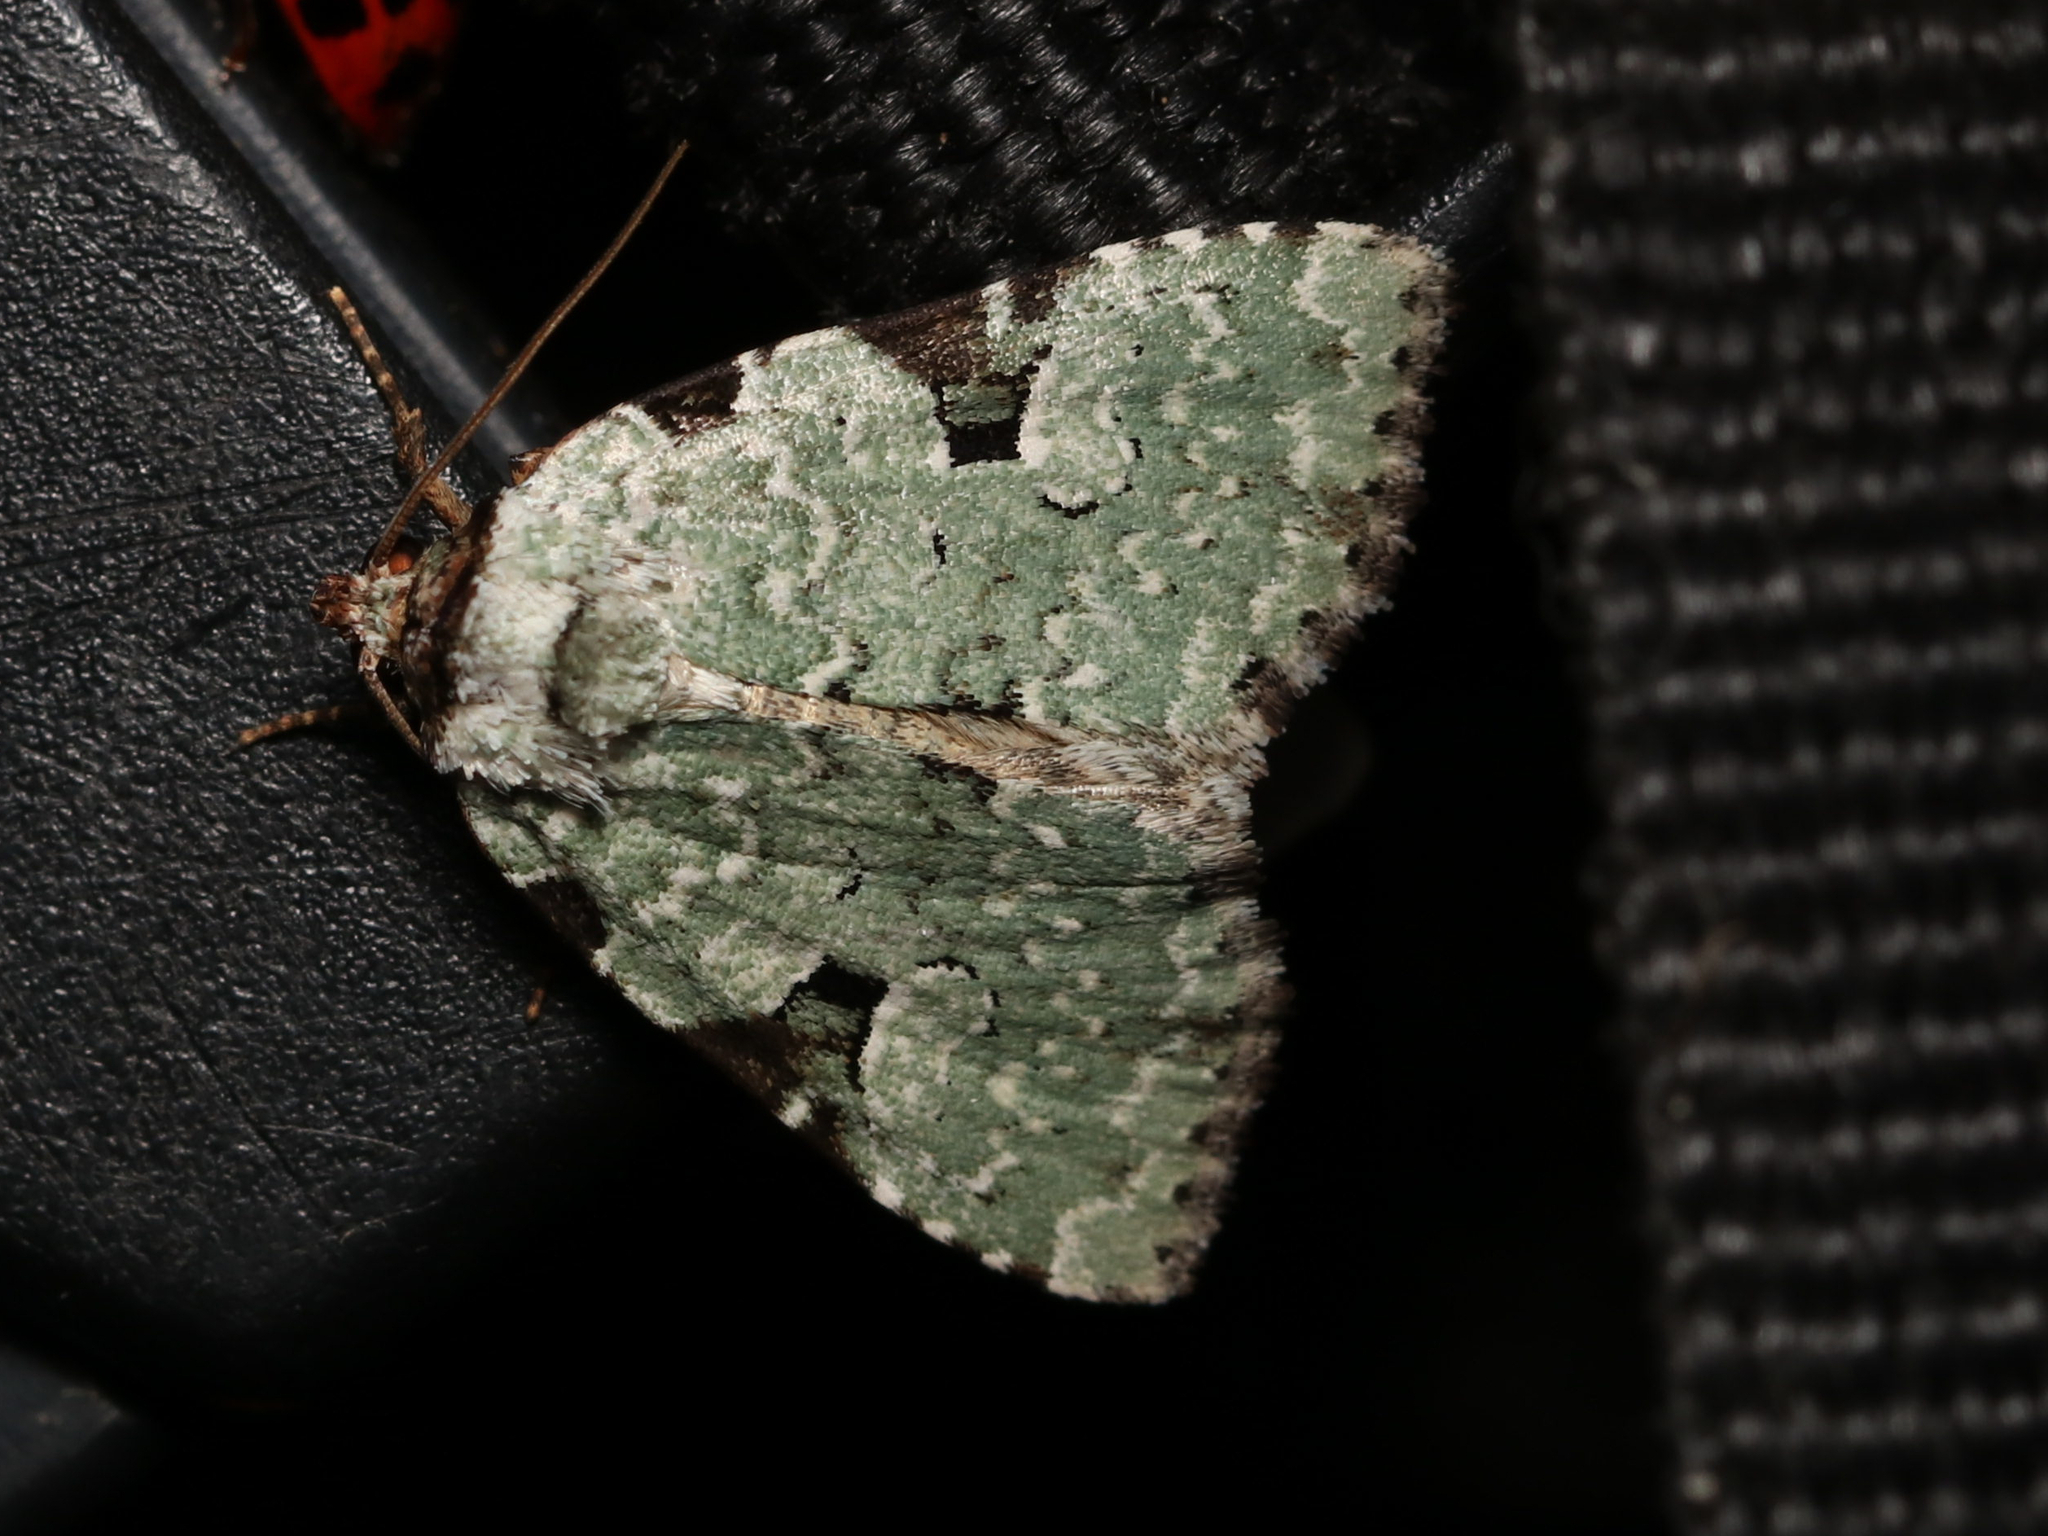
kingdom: Animalia
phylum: Arthropoda
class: Insecta
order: Lepidoptera
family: Noctuidae
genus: Leuconycta
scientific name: Leuconycta diphteroides
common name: Green leuconycta moth
